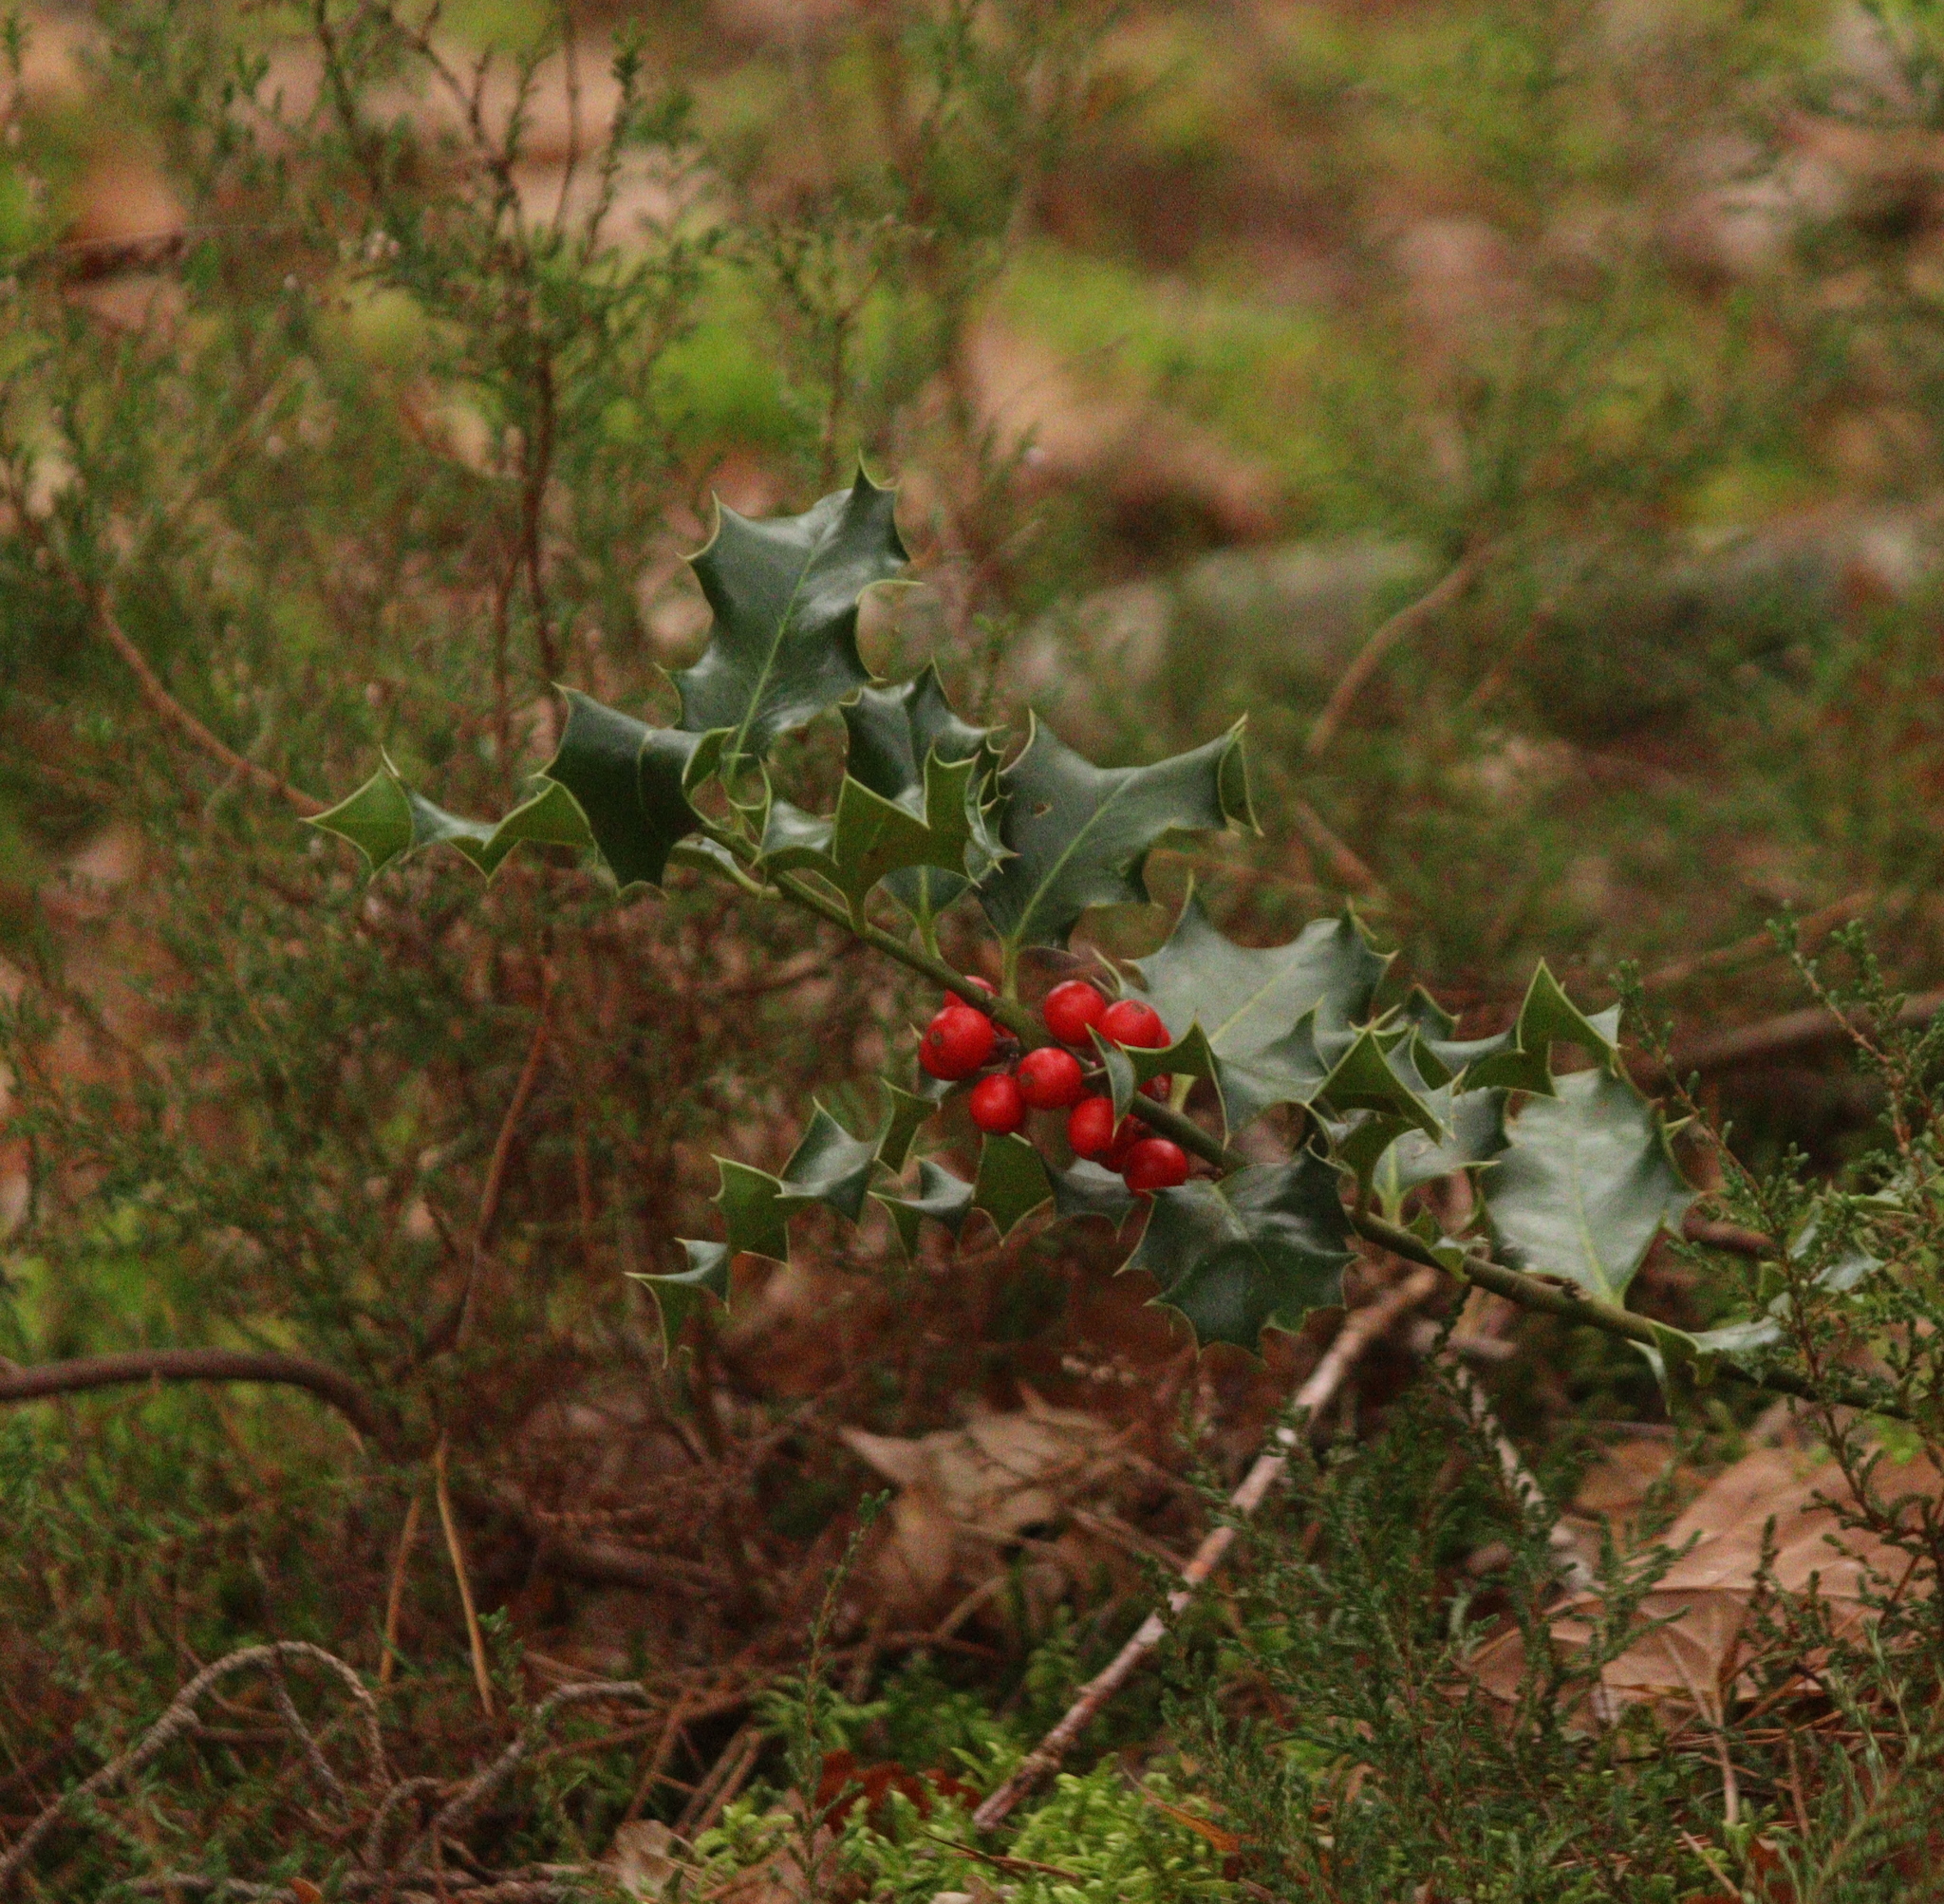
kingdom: Plantae
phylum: Tracheophyta
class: Magnoliopsida
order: Aquifoliales
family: Aquifoliaceae
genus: Ilex
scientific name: Ilex aquifolium
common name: English holly
